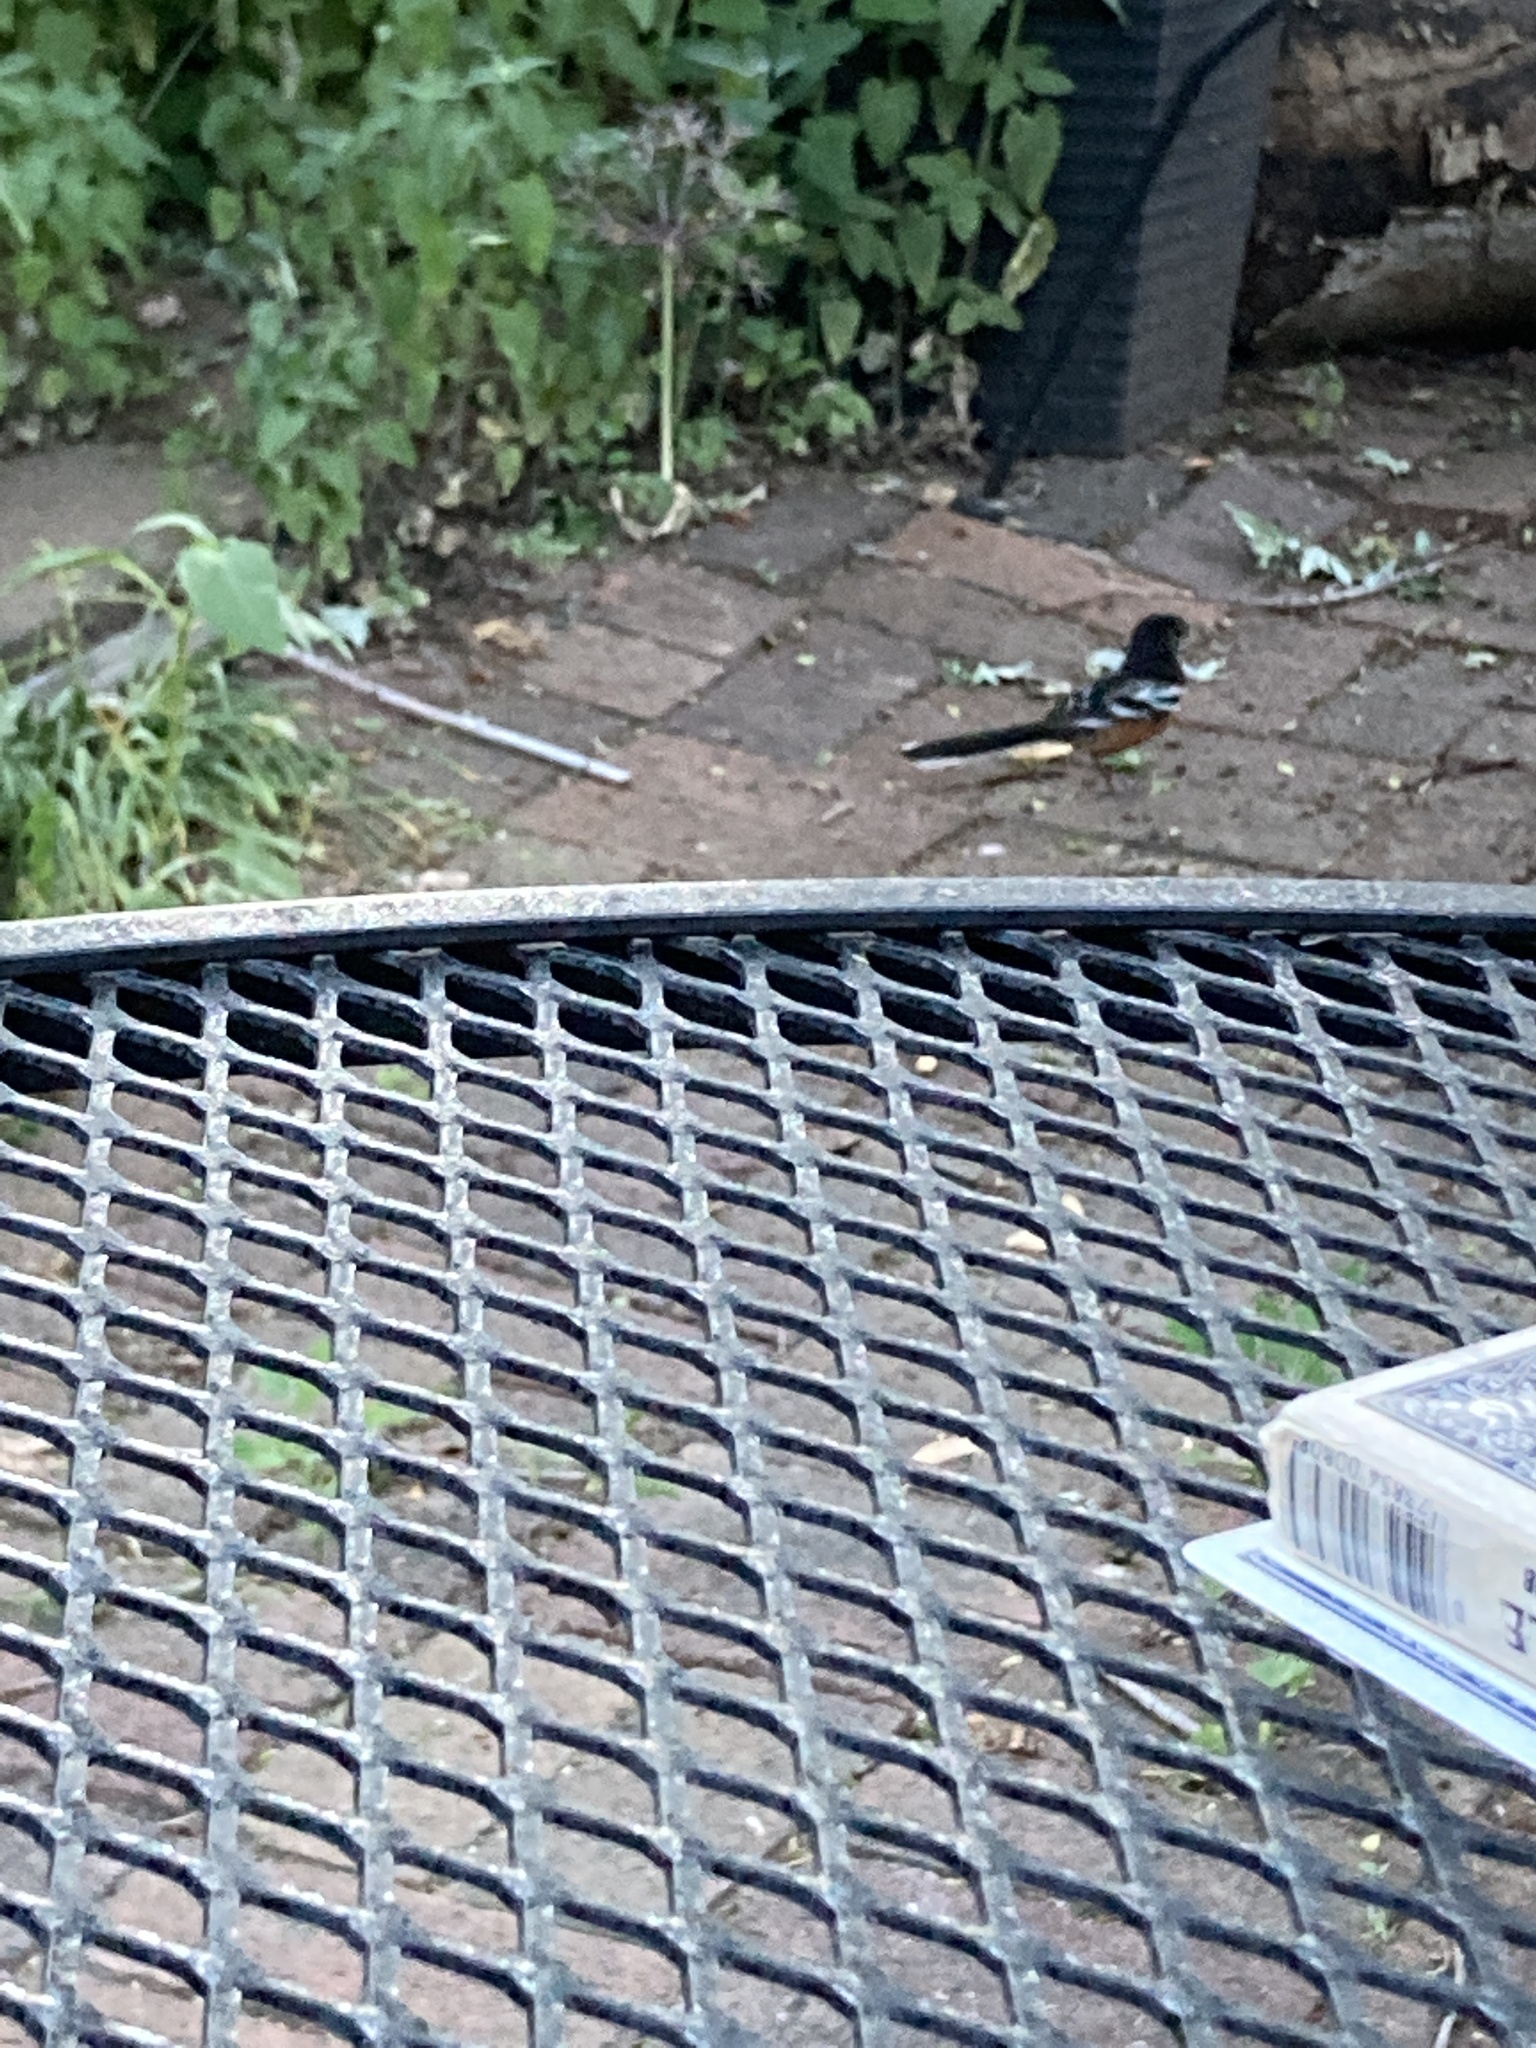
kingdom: Animalia
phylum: Chordata
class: Aves
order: Passeriformes
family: Passerellidae
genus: Pipilo
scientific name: Pipilo maculatus
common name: Spotted towhee
